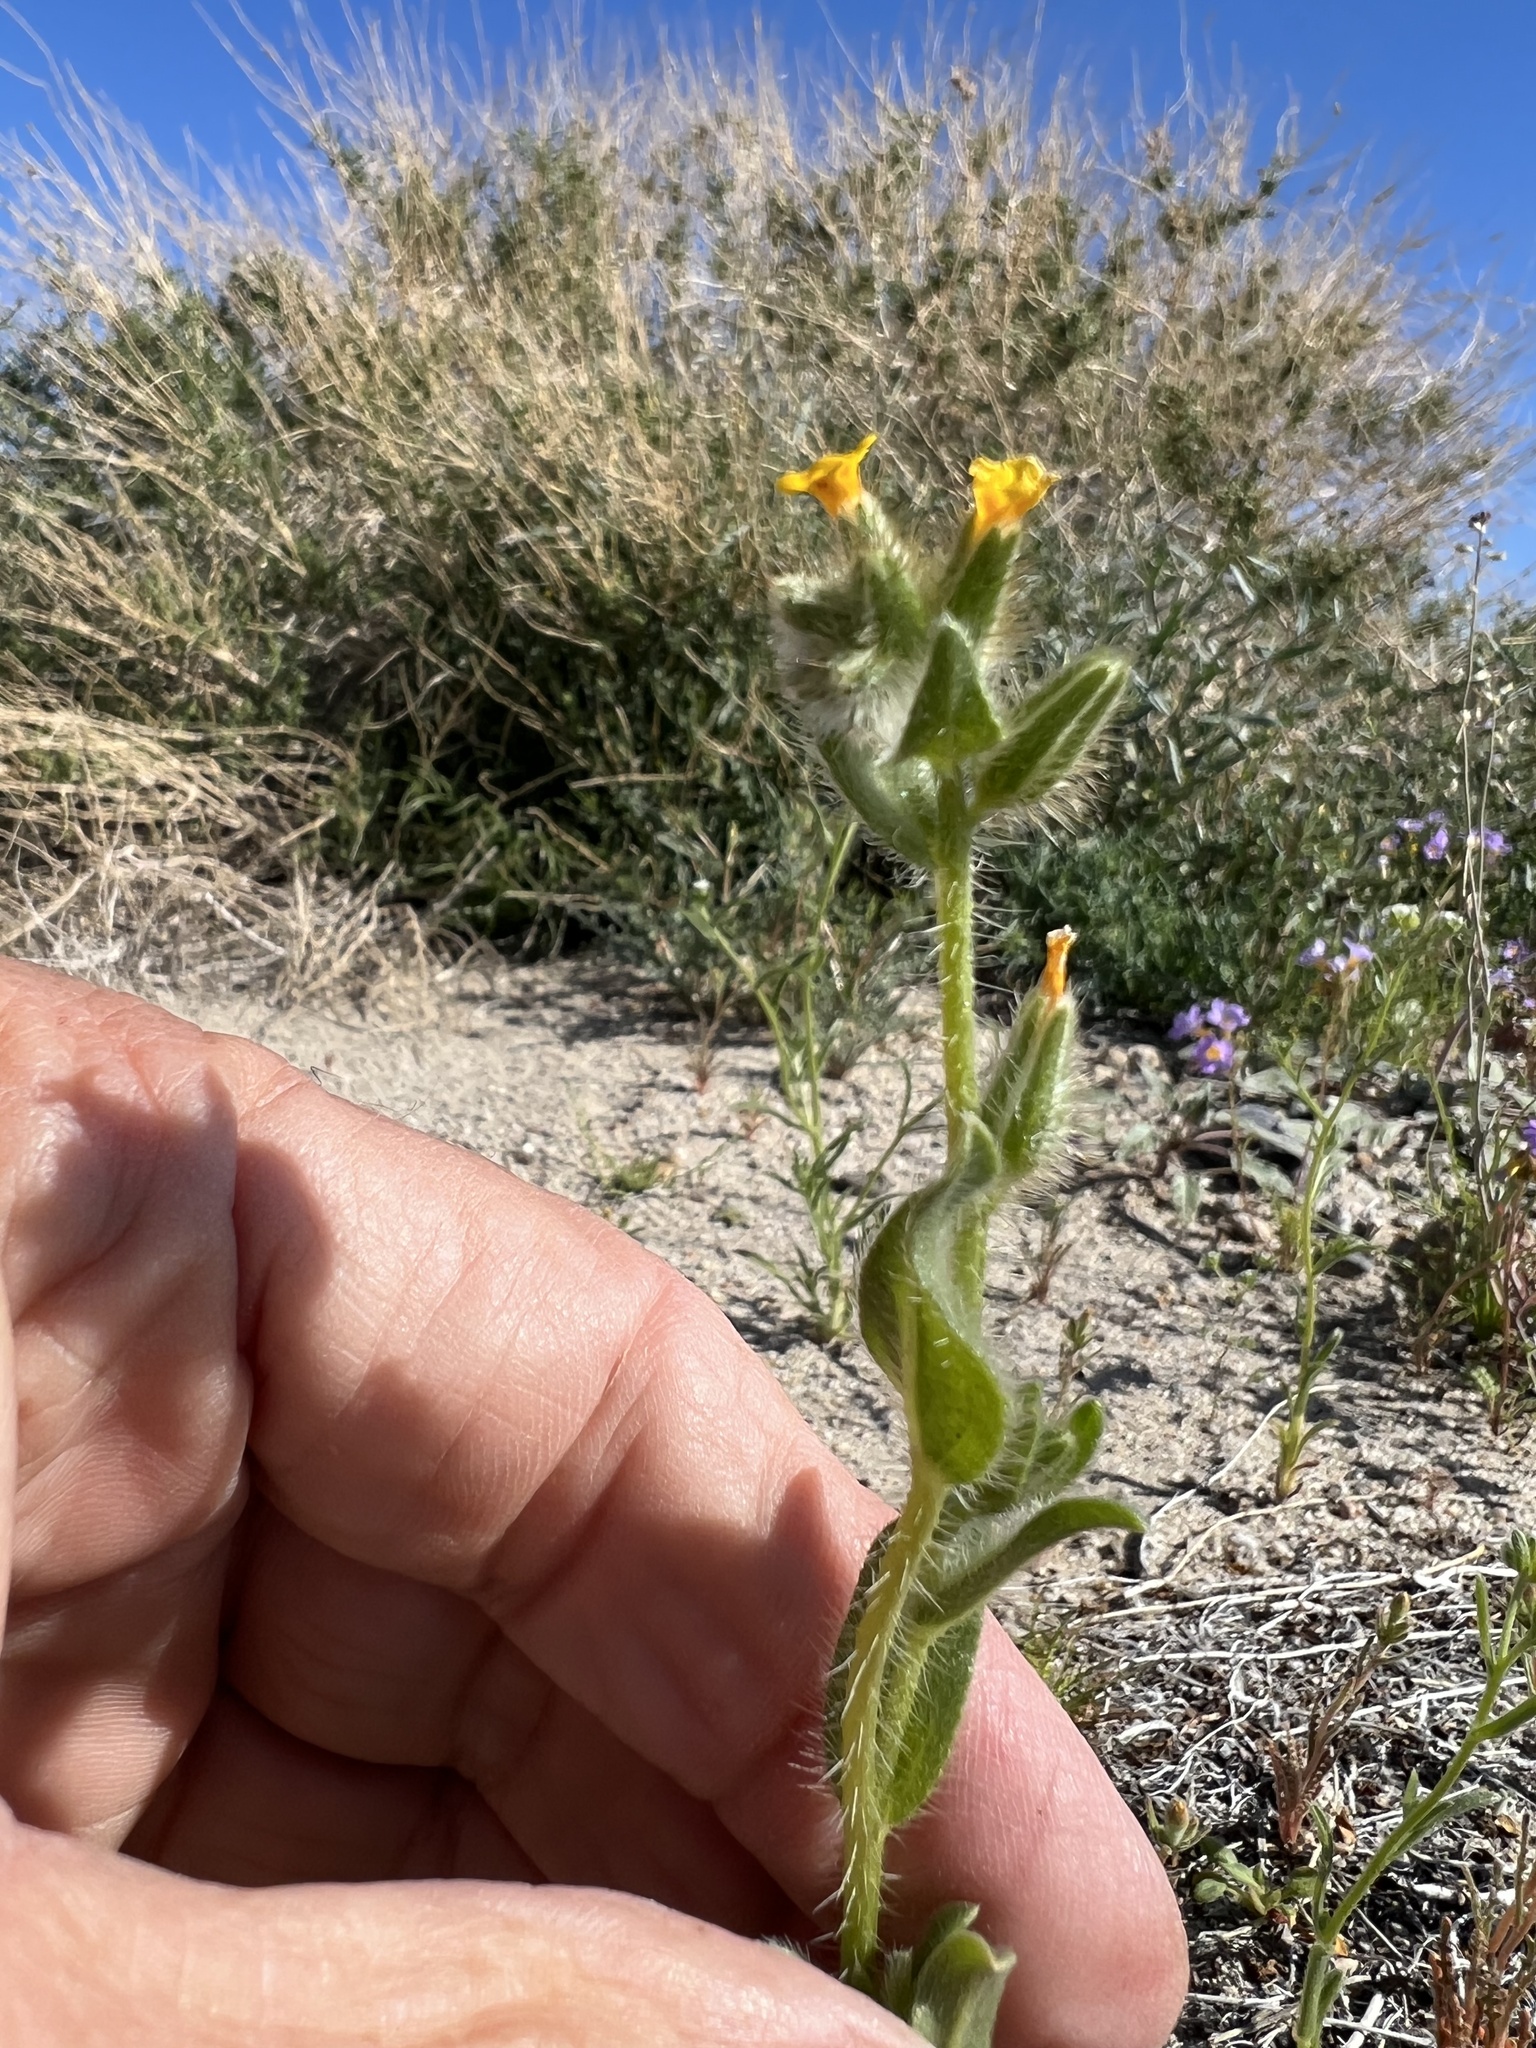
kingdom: Plantae
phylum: Tracheophyta
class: Magnoliopsida
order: Boraginales
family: Boraginaceae
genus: Amsinckia
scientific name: Amsinckia tessellata
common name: Tessellate fiddleneck
